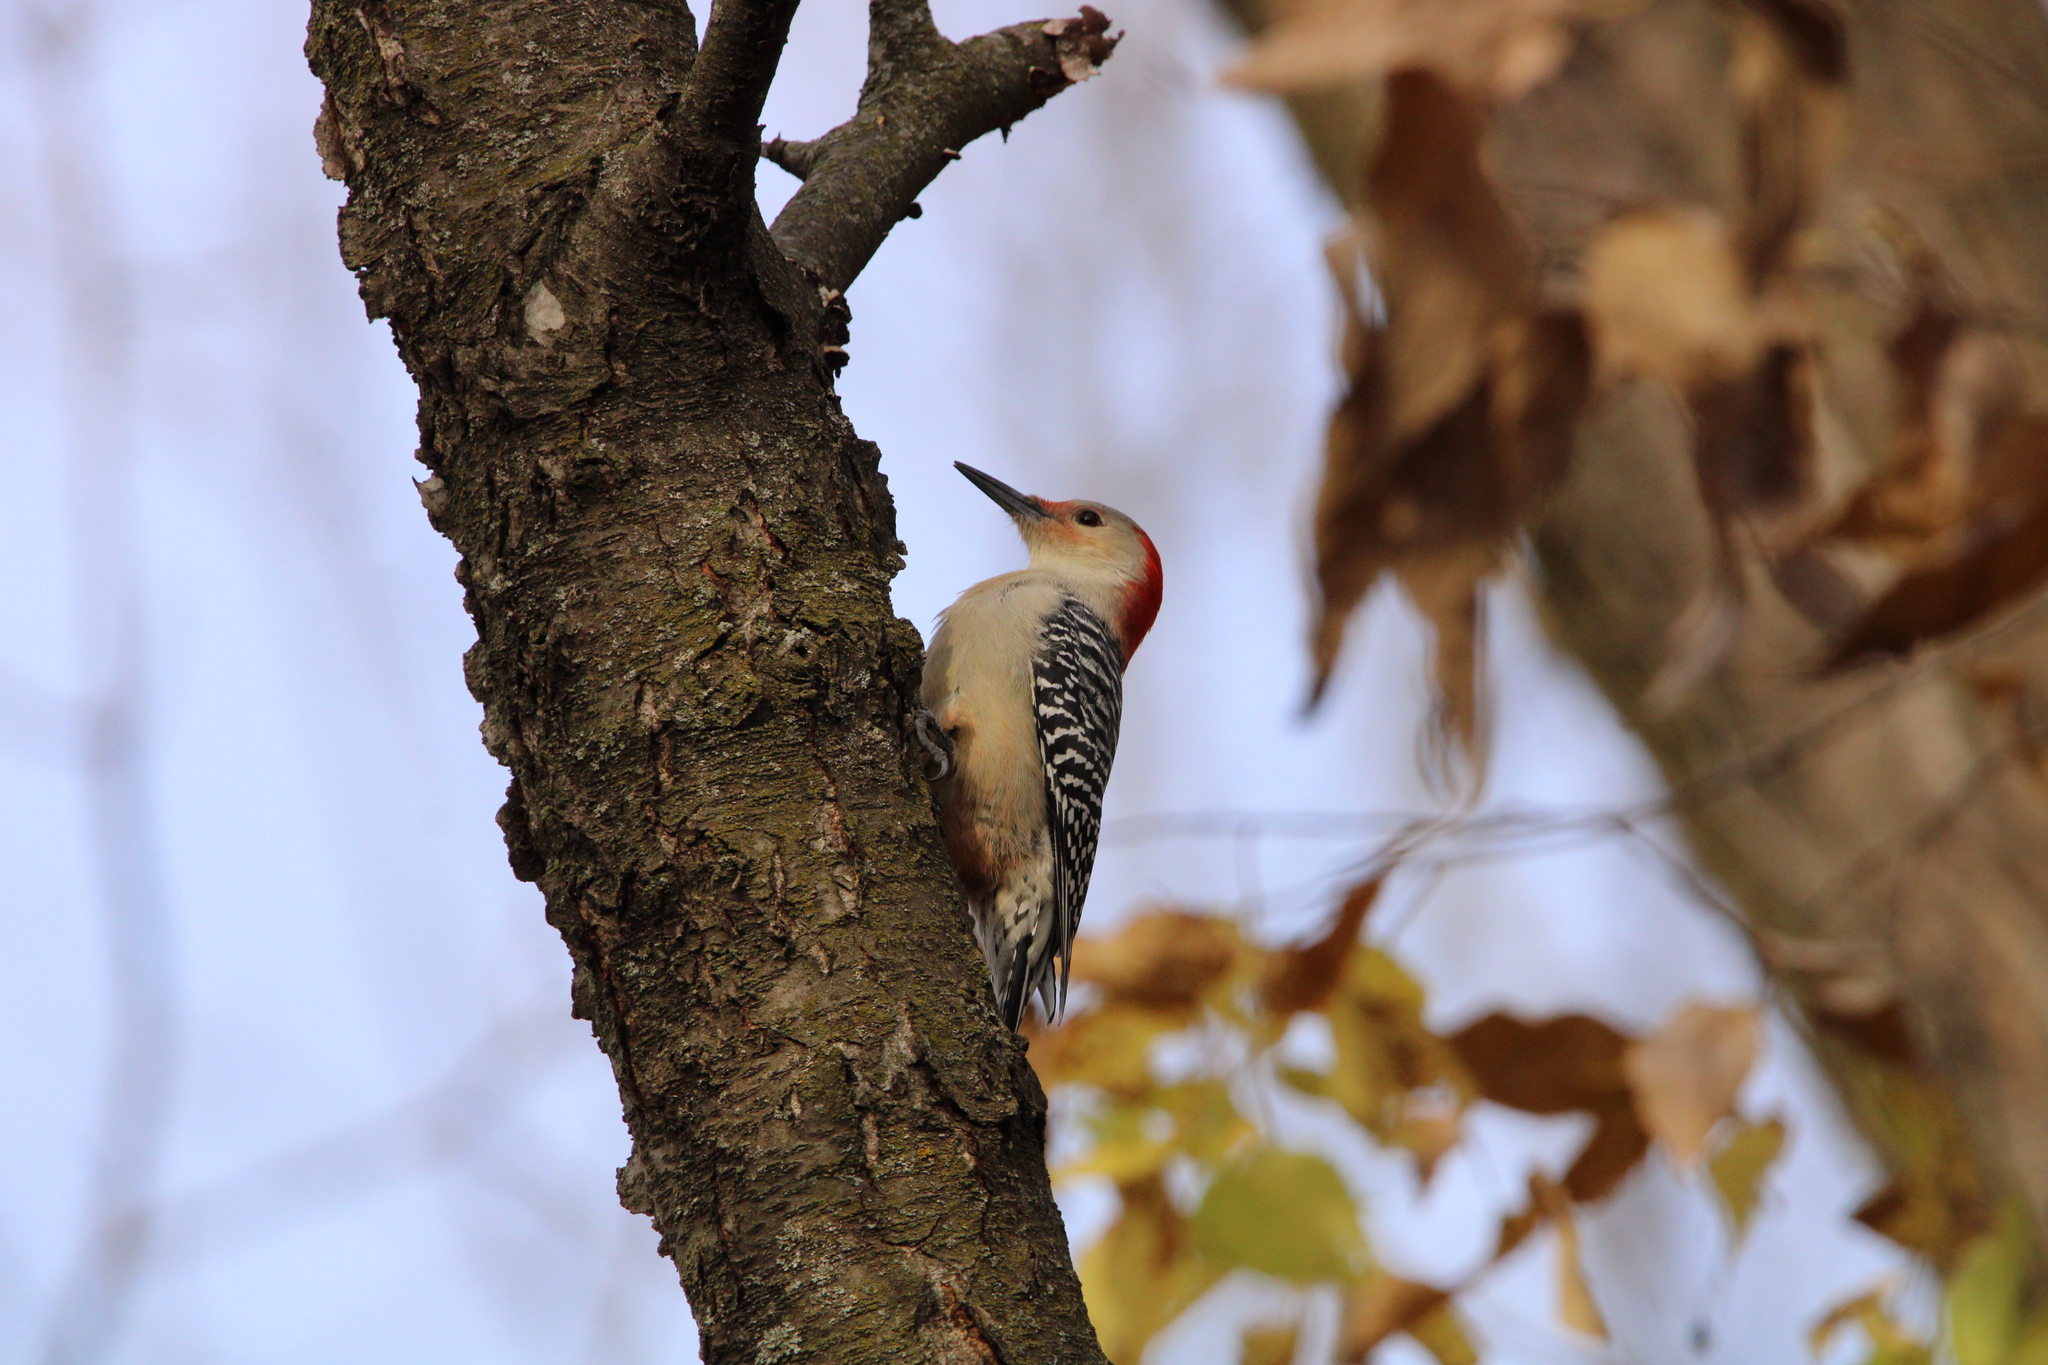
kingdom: Animalia
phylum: Chordata
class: Aves
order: Piciformes
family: Picidae
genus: Melanerpes
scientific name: Melanerpes carolinus
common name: Red-bellied woodpecker
